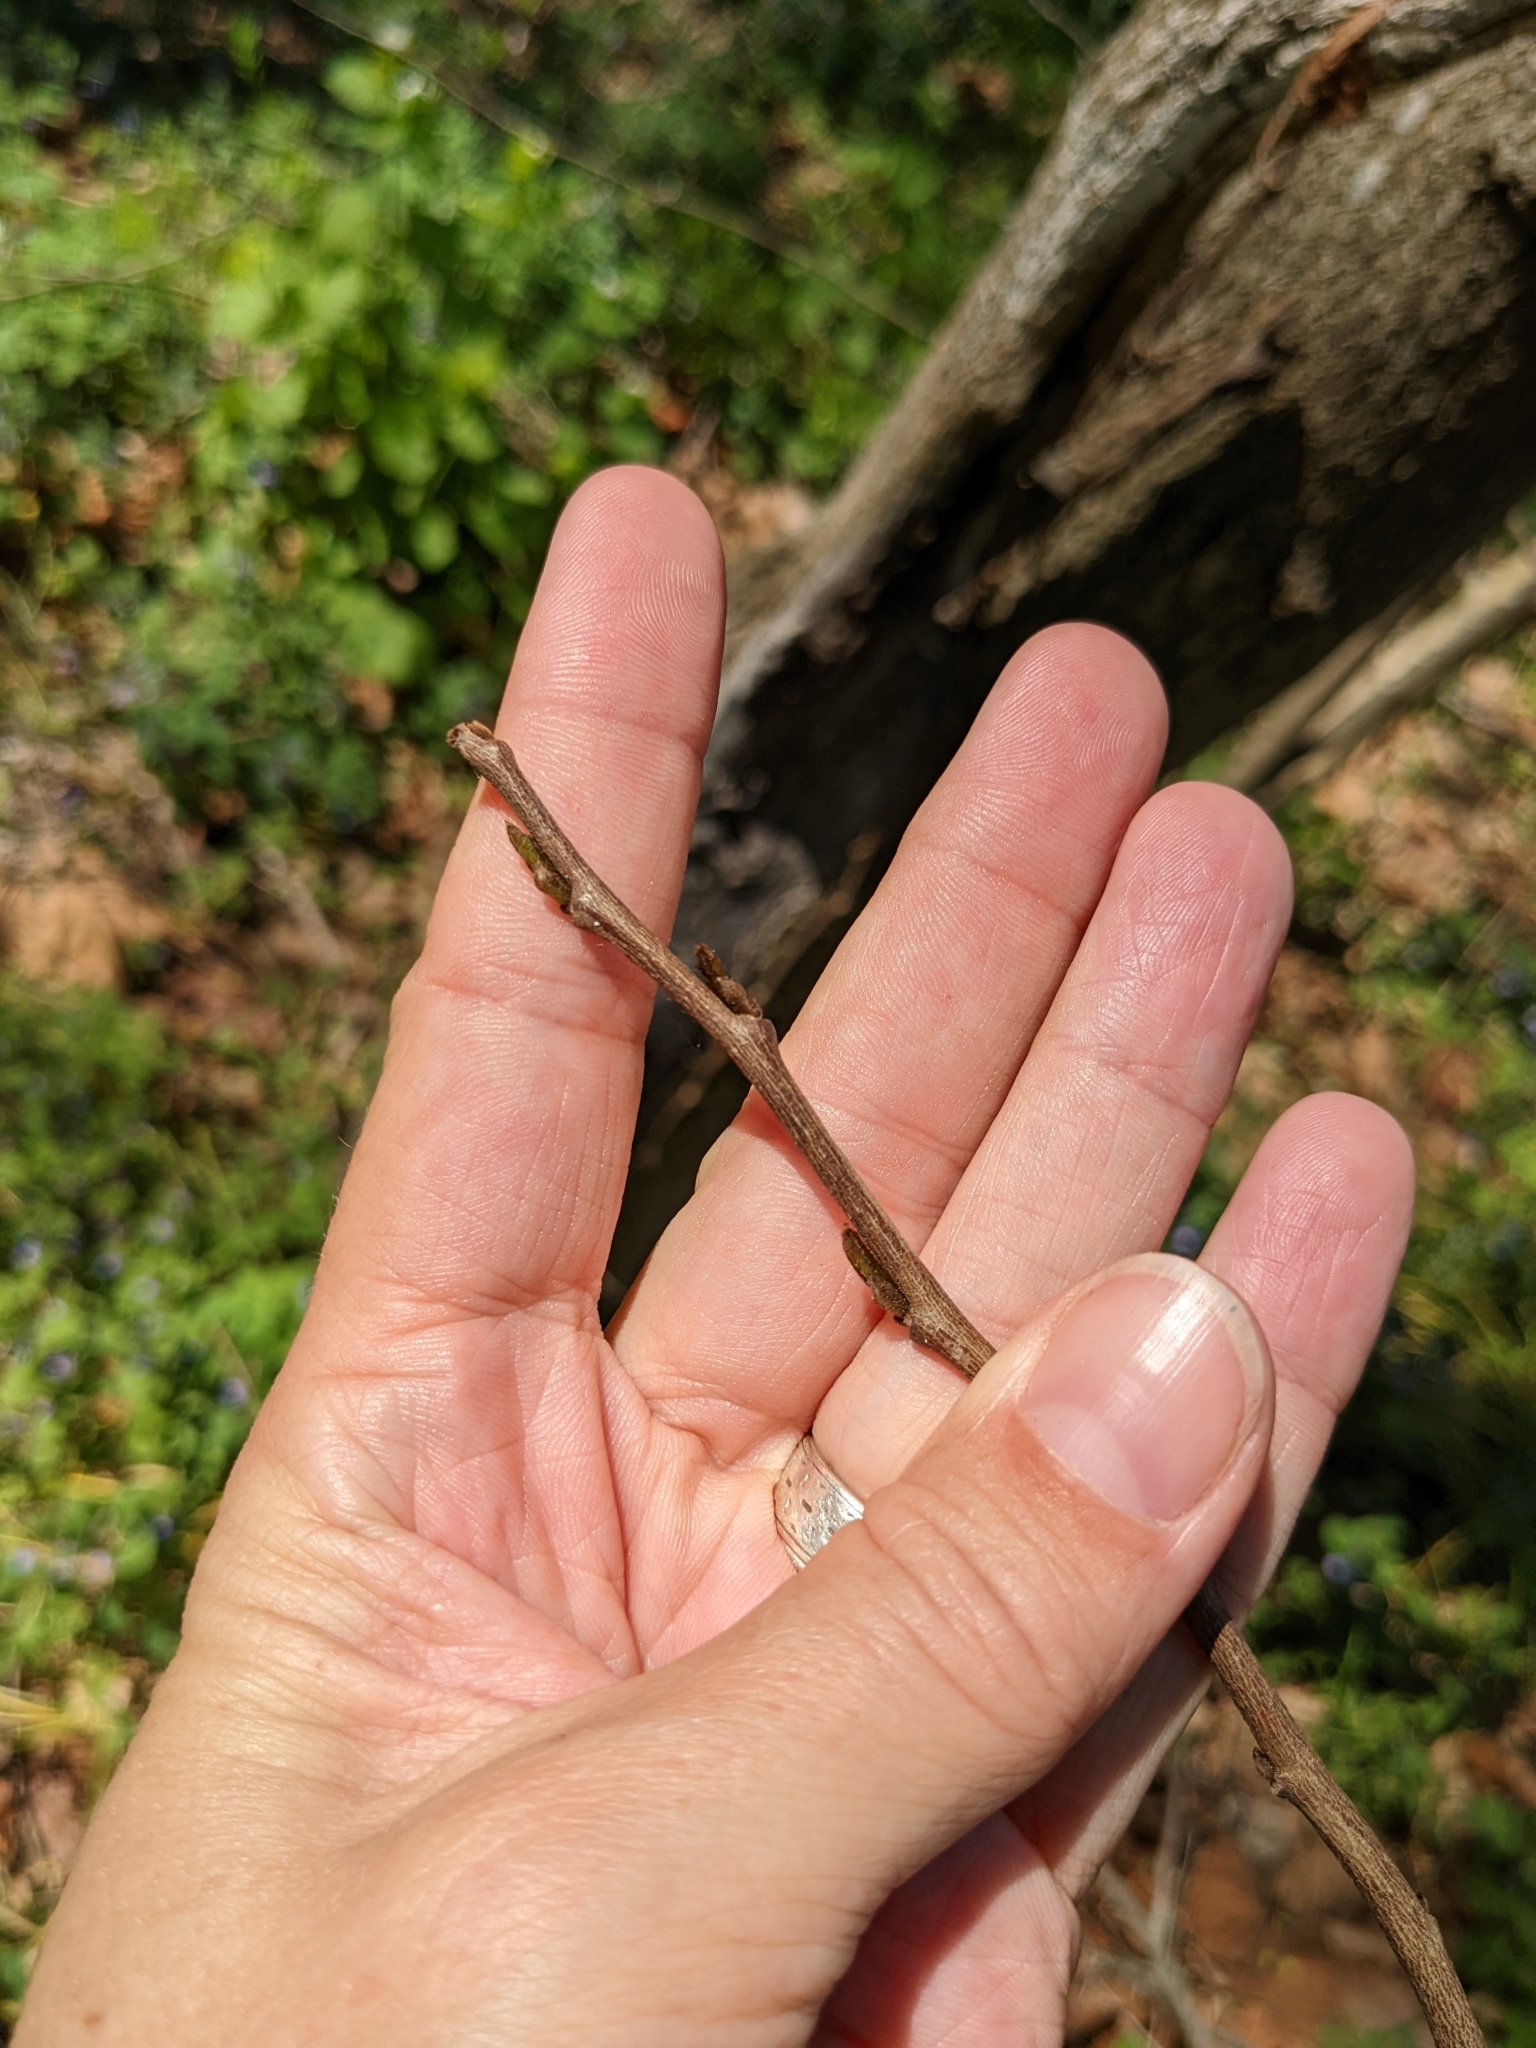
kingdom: Plantae
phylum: Tracheophyta
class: Magnoliopsida
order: Magnoliales
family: Annonaceae
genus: Asimina
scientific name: Asimina triloba
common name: Dog-banana
